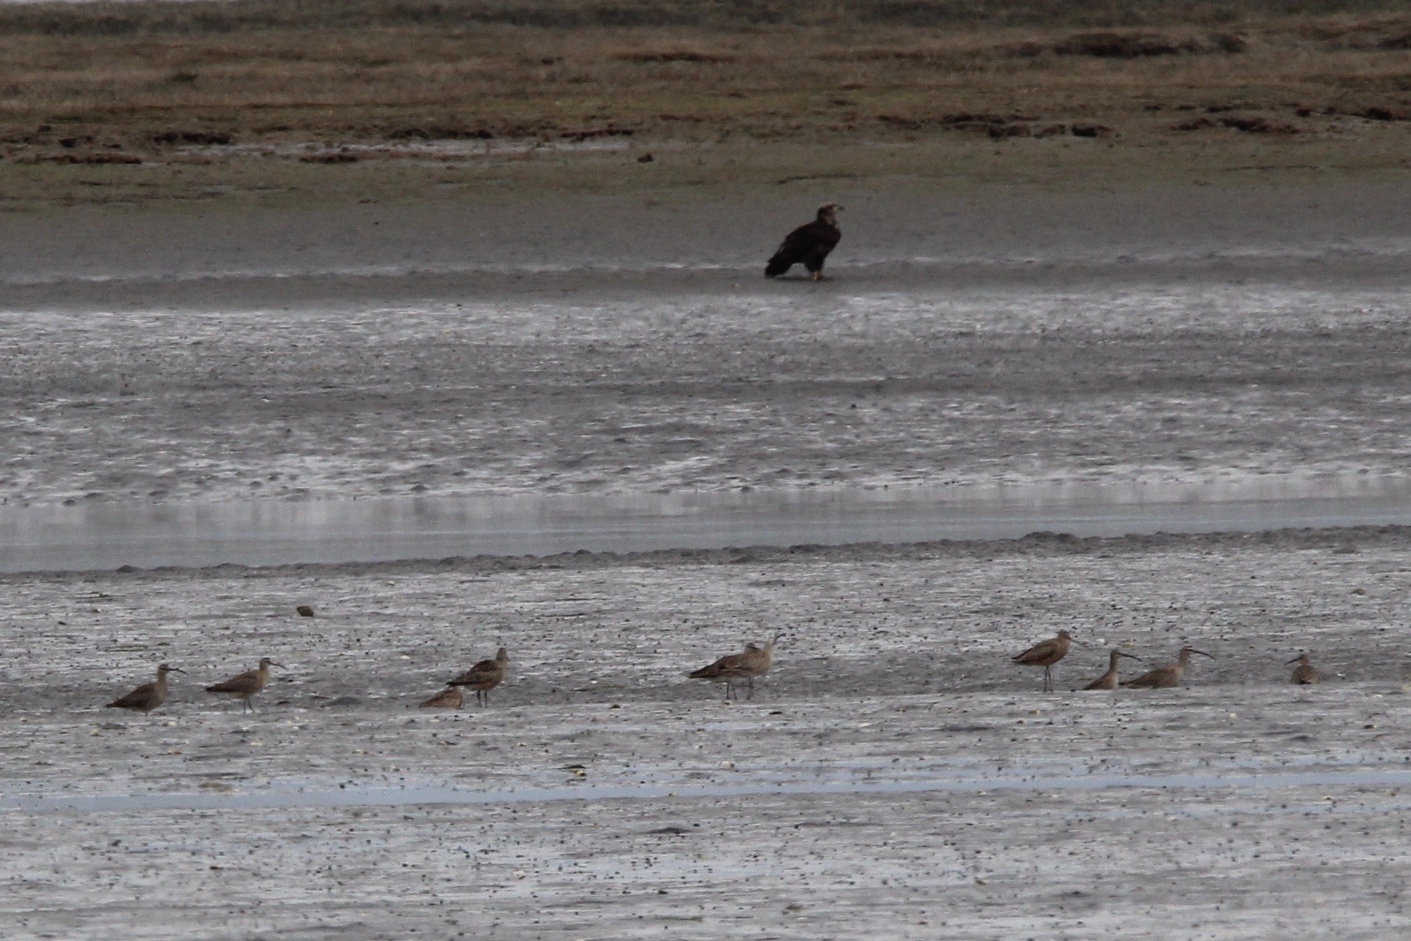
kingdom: Animalia
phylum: Chordata
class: Aves
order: Accipitriformes
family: Accipitridae
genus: Haliaeetus
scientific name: Haliaeetus leucocephalus
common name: Bald eagle
